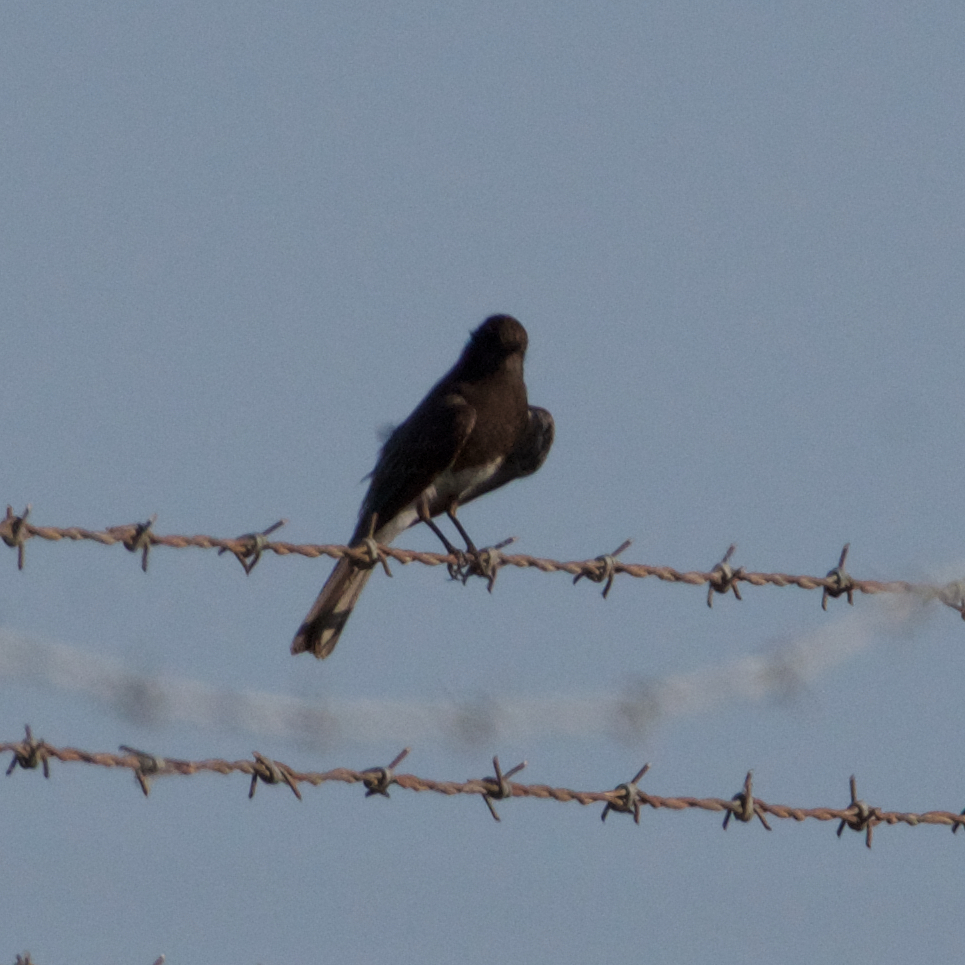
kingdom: Animalia
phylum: Chordata
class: Aves
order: Passeriformes
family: Tyrannidae
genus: Sayornis
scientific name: Sayornis nigricans
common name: Black phoebe
